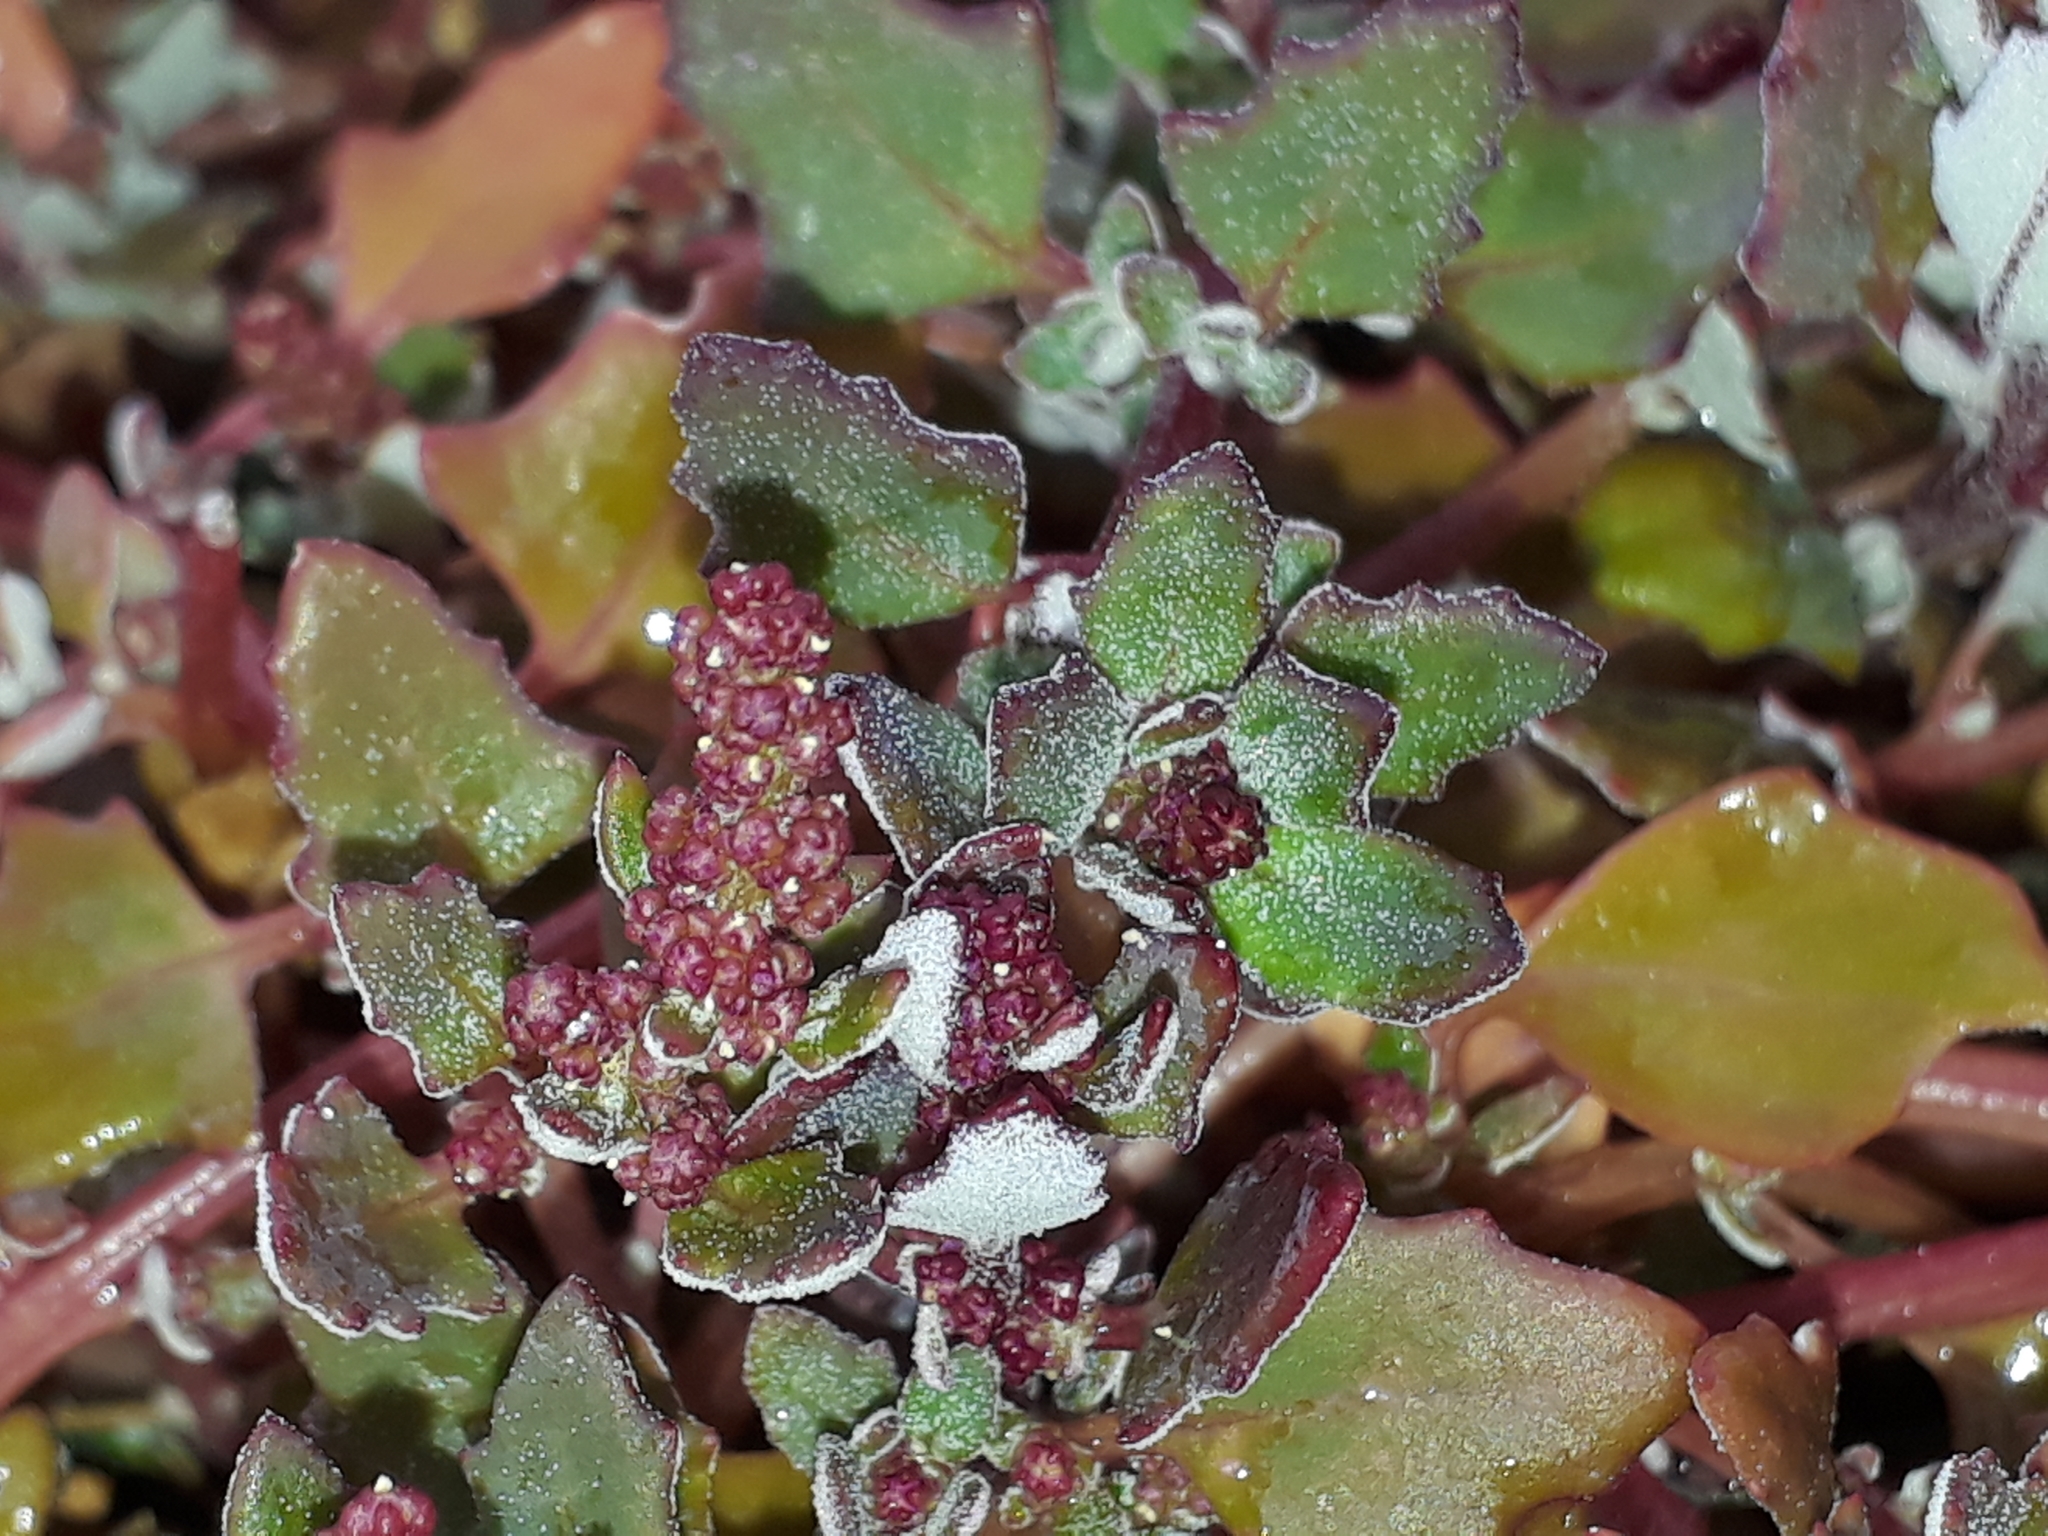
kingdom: Plantae
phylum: Tracheophyta
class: Magnoliopsida
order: Caryophyllales
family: Amaranthaceae
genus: Oxybasis
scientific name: Oxybasis ambigua
